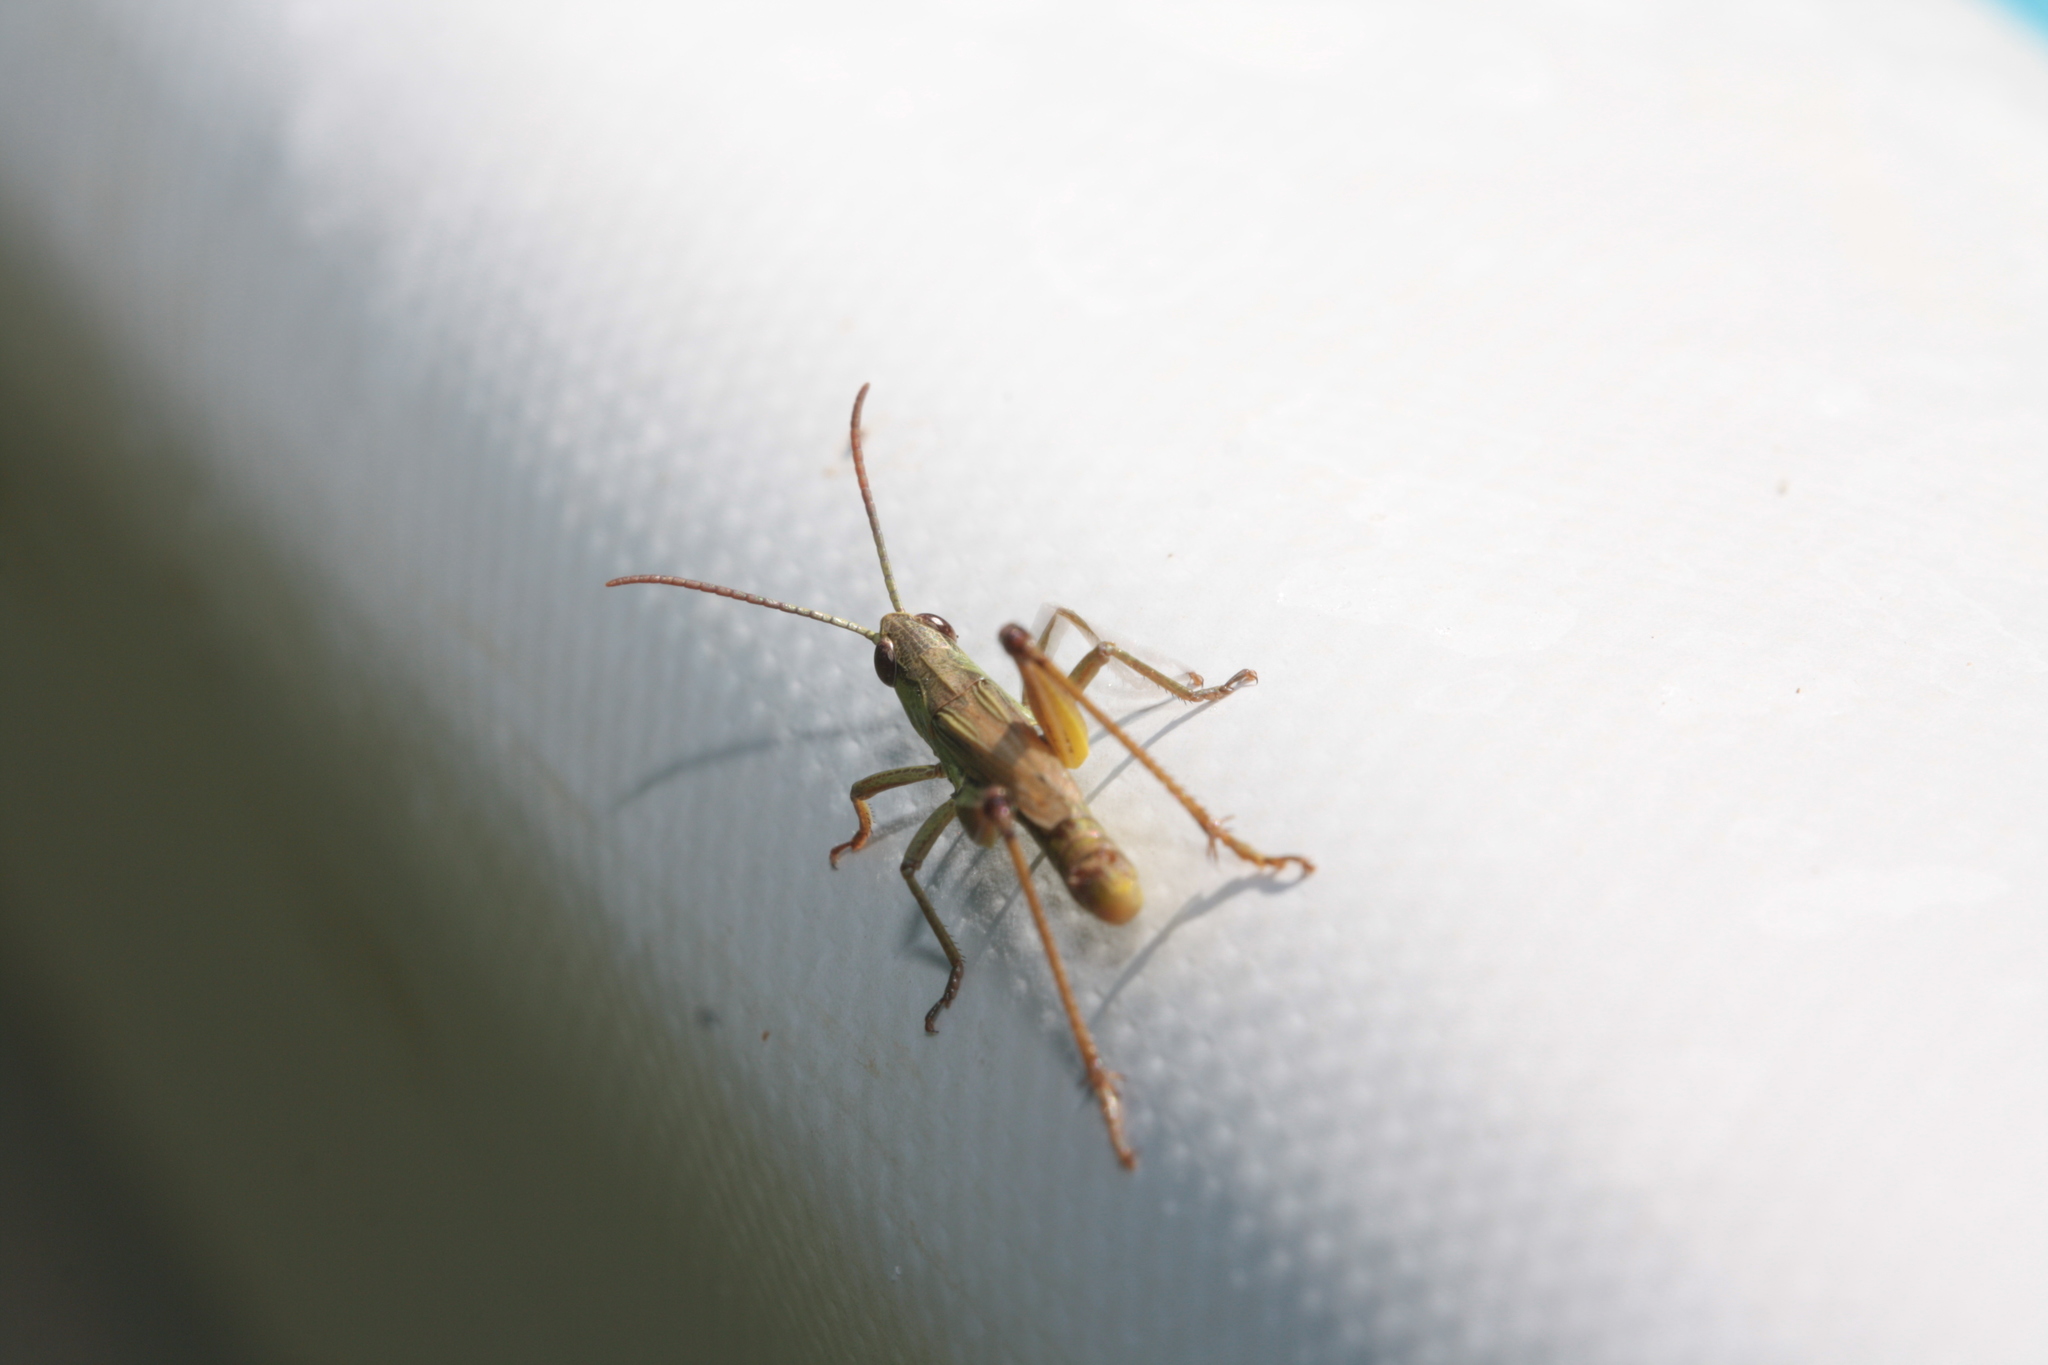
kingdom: Animalia
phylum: Arthropoda
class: Insecta
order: Orthoptera
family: Acrididae
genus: Pseudochorthippus
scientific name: Pseudochorthippus parallelus
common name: Meadow grasshopper
